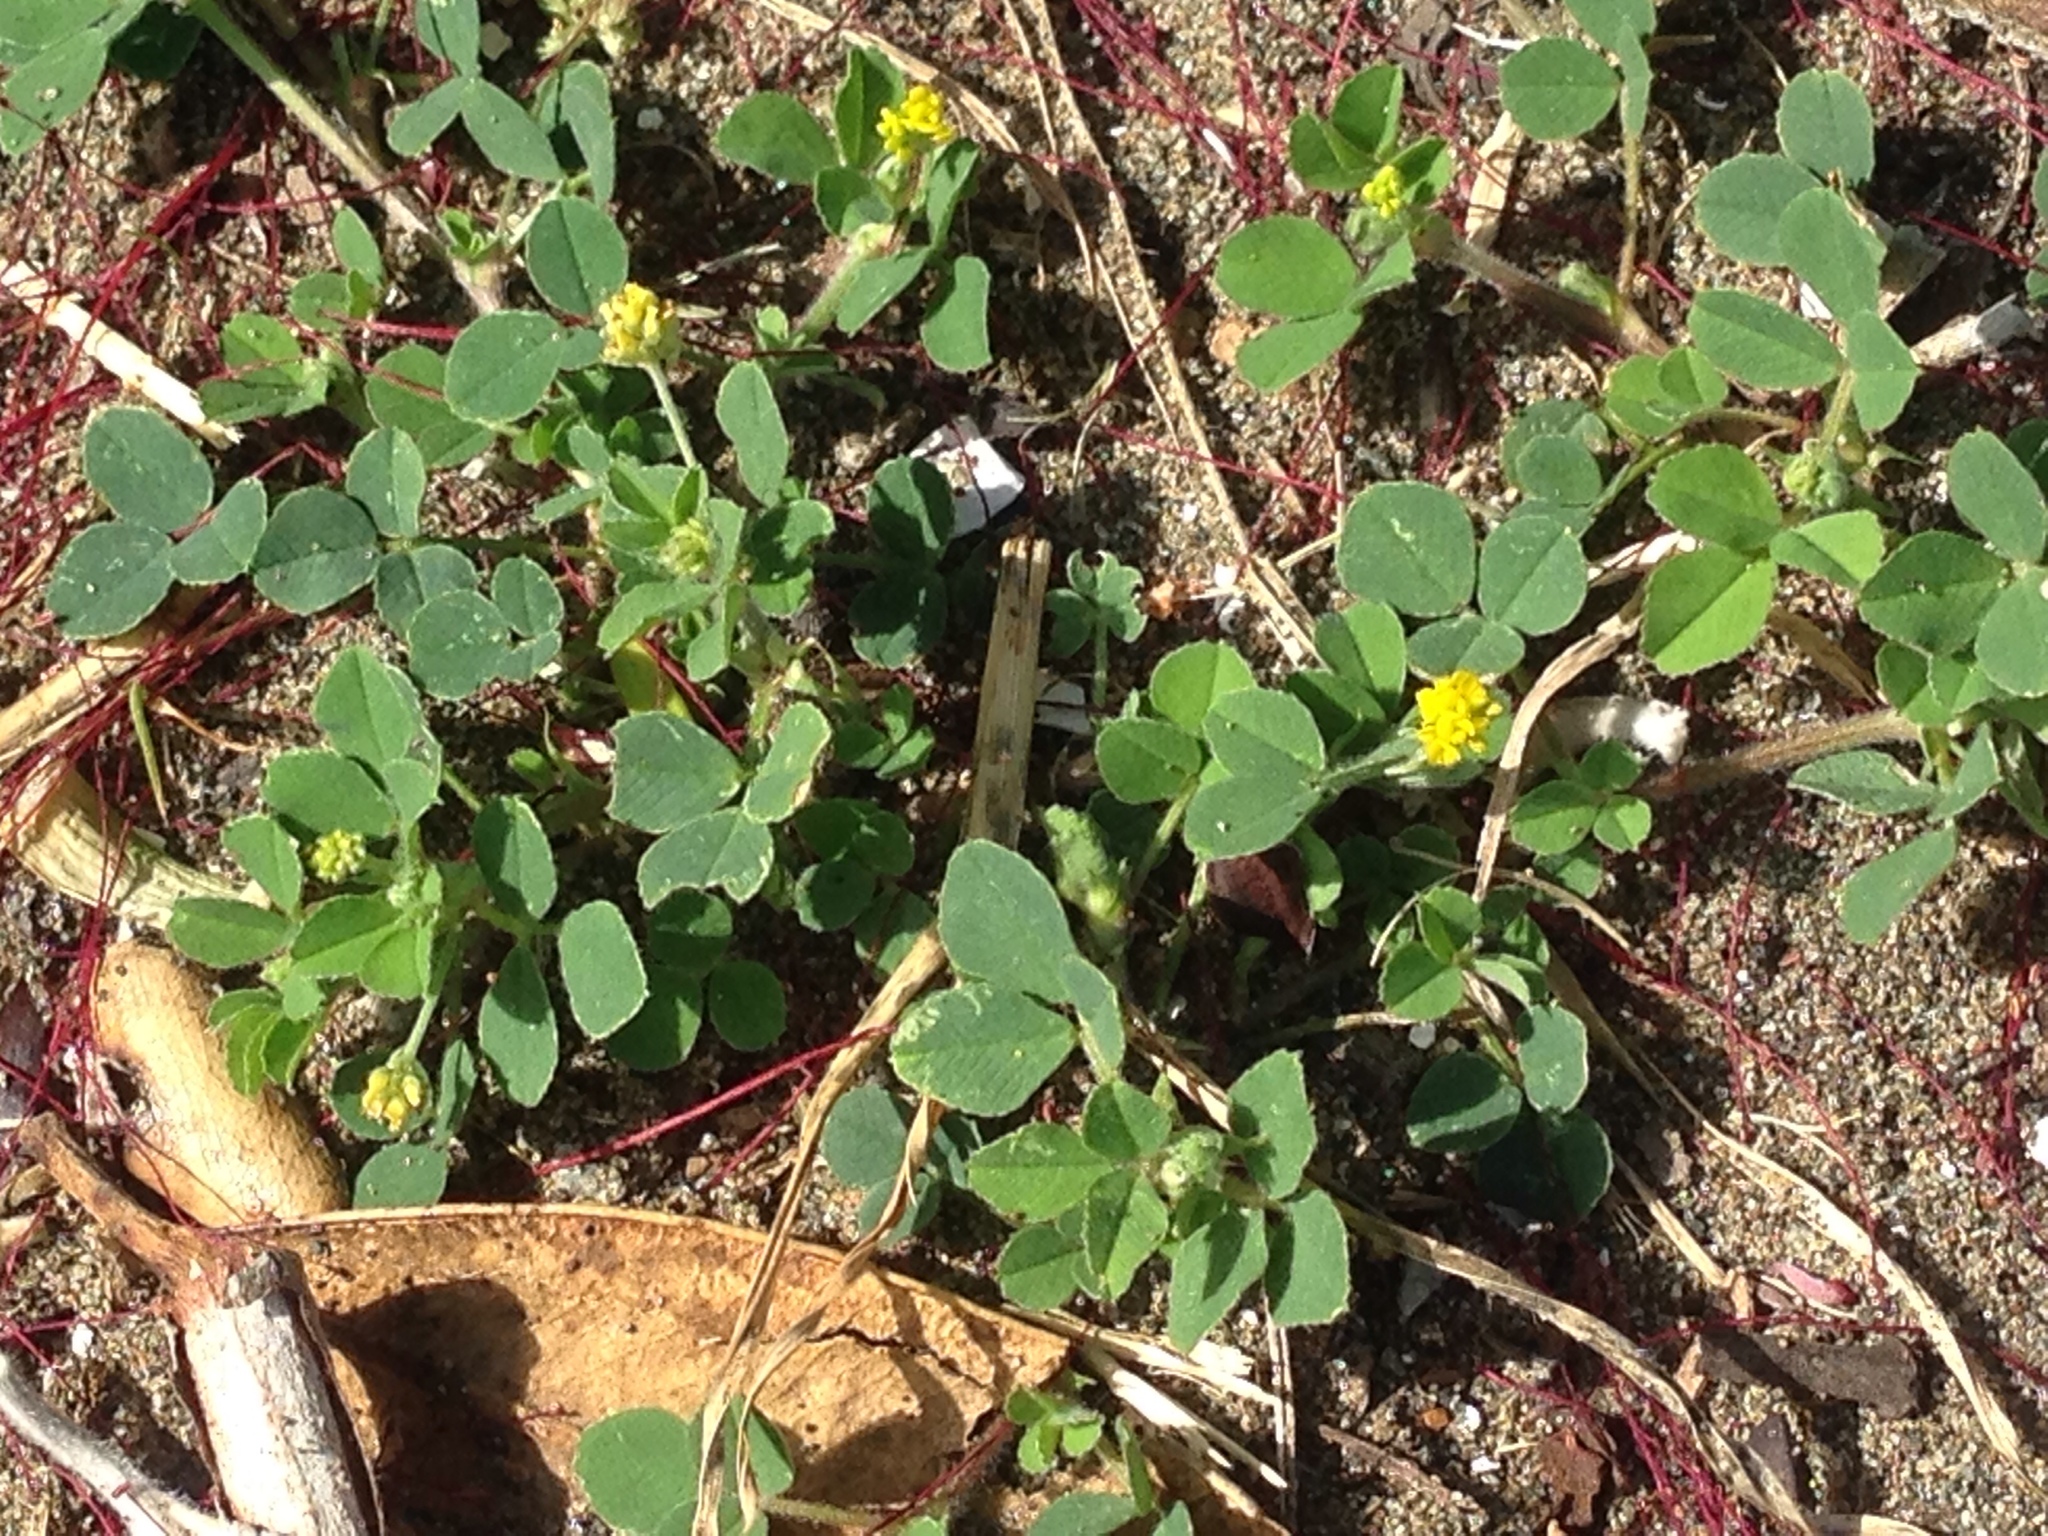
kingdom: Plantae
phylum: Tracheophyta
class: Magnoliopsida
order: Fabales
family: Fabaceae
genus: Medicago
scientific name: Medicago lupulina
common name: Black medick
